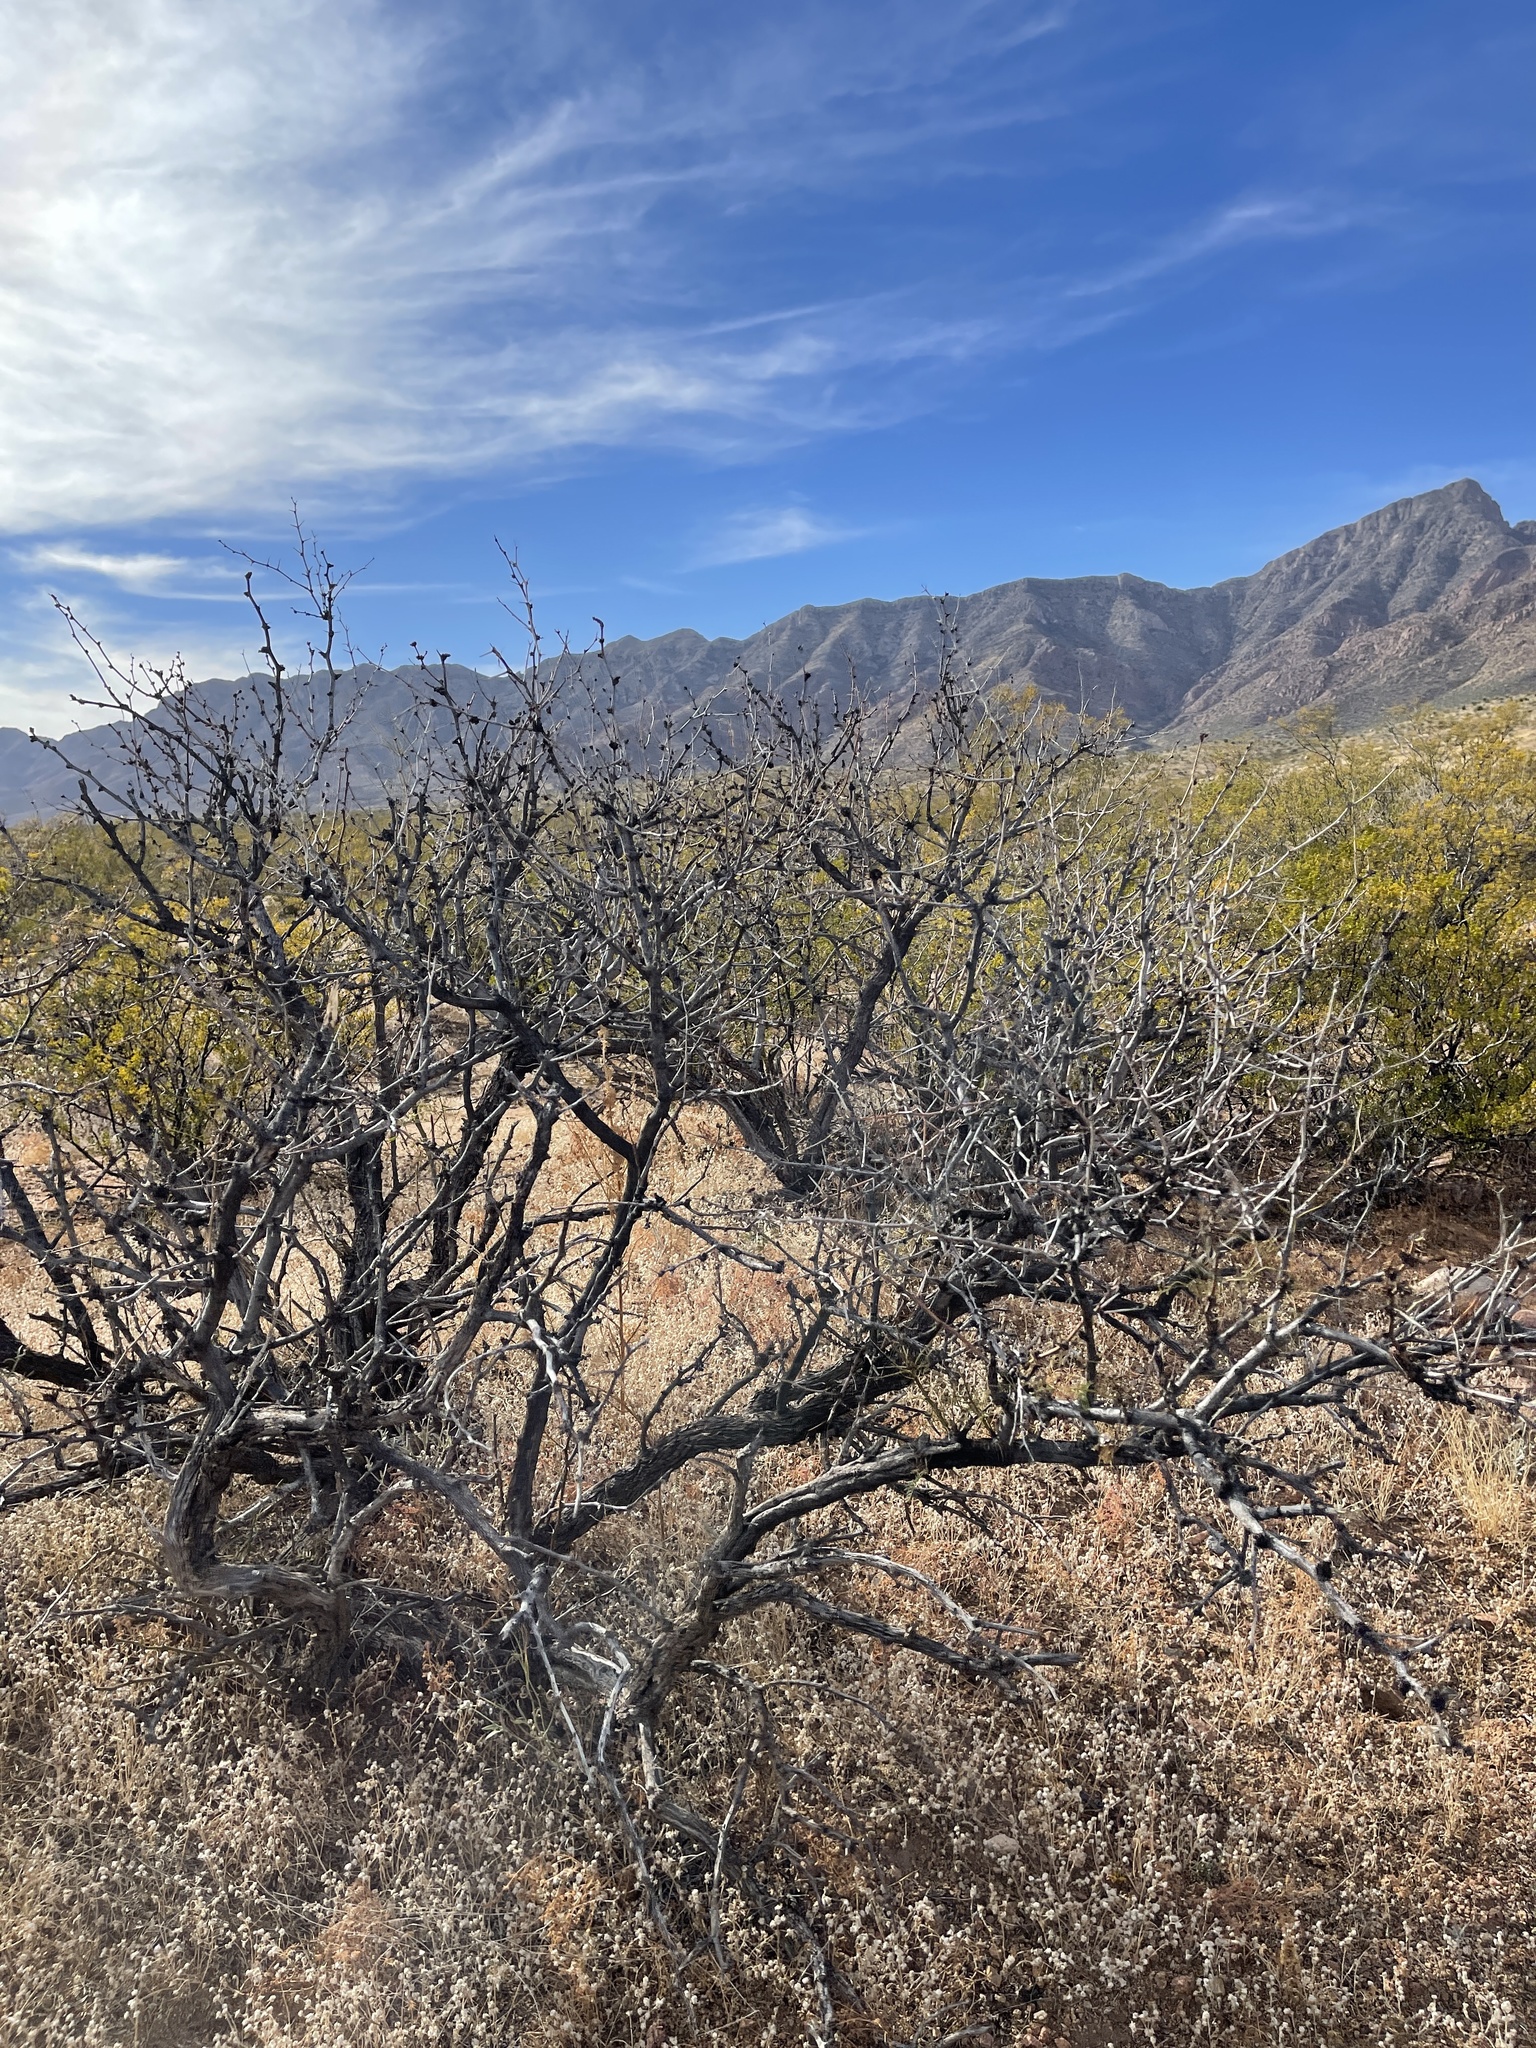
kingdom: Plantae
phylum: Tracheophyta
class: Magnoliopsida
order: Fabales
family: Fabaceae
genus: Prosopis
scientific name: Prosopis glandulosa
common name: Honey mesquite
